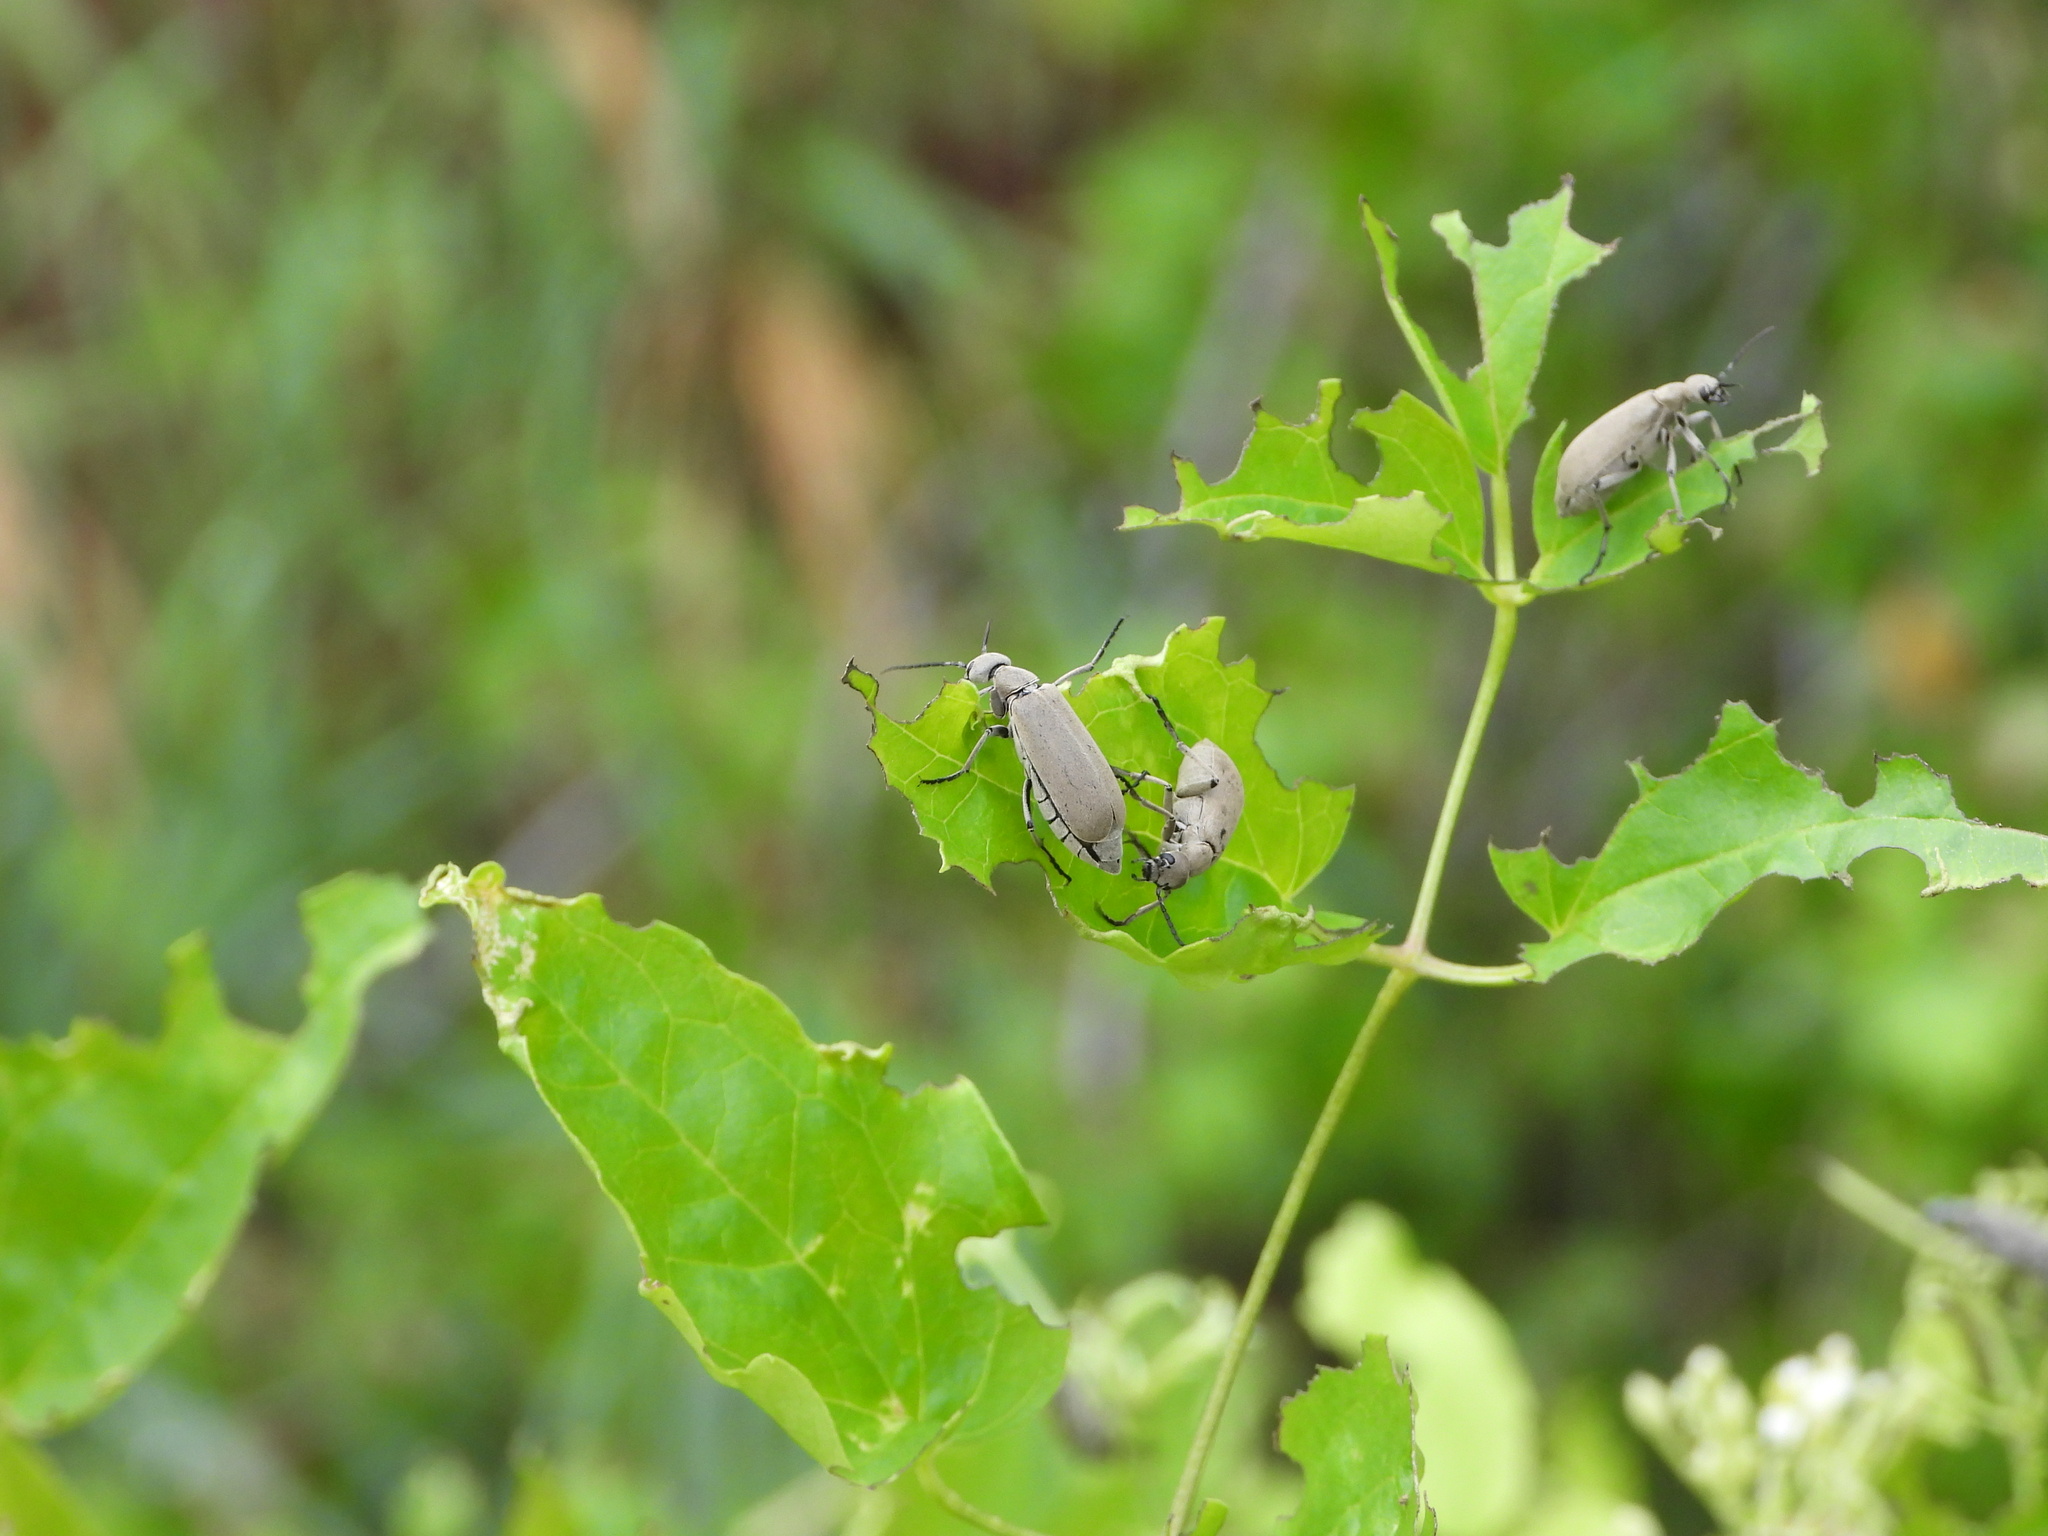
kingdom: Animalia
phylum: Arthropoda
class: Insecta
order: Coleoptera
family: Meloidae
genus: Epicauta
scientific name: Epicauta cinerea
